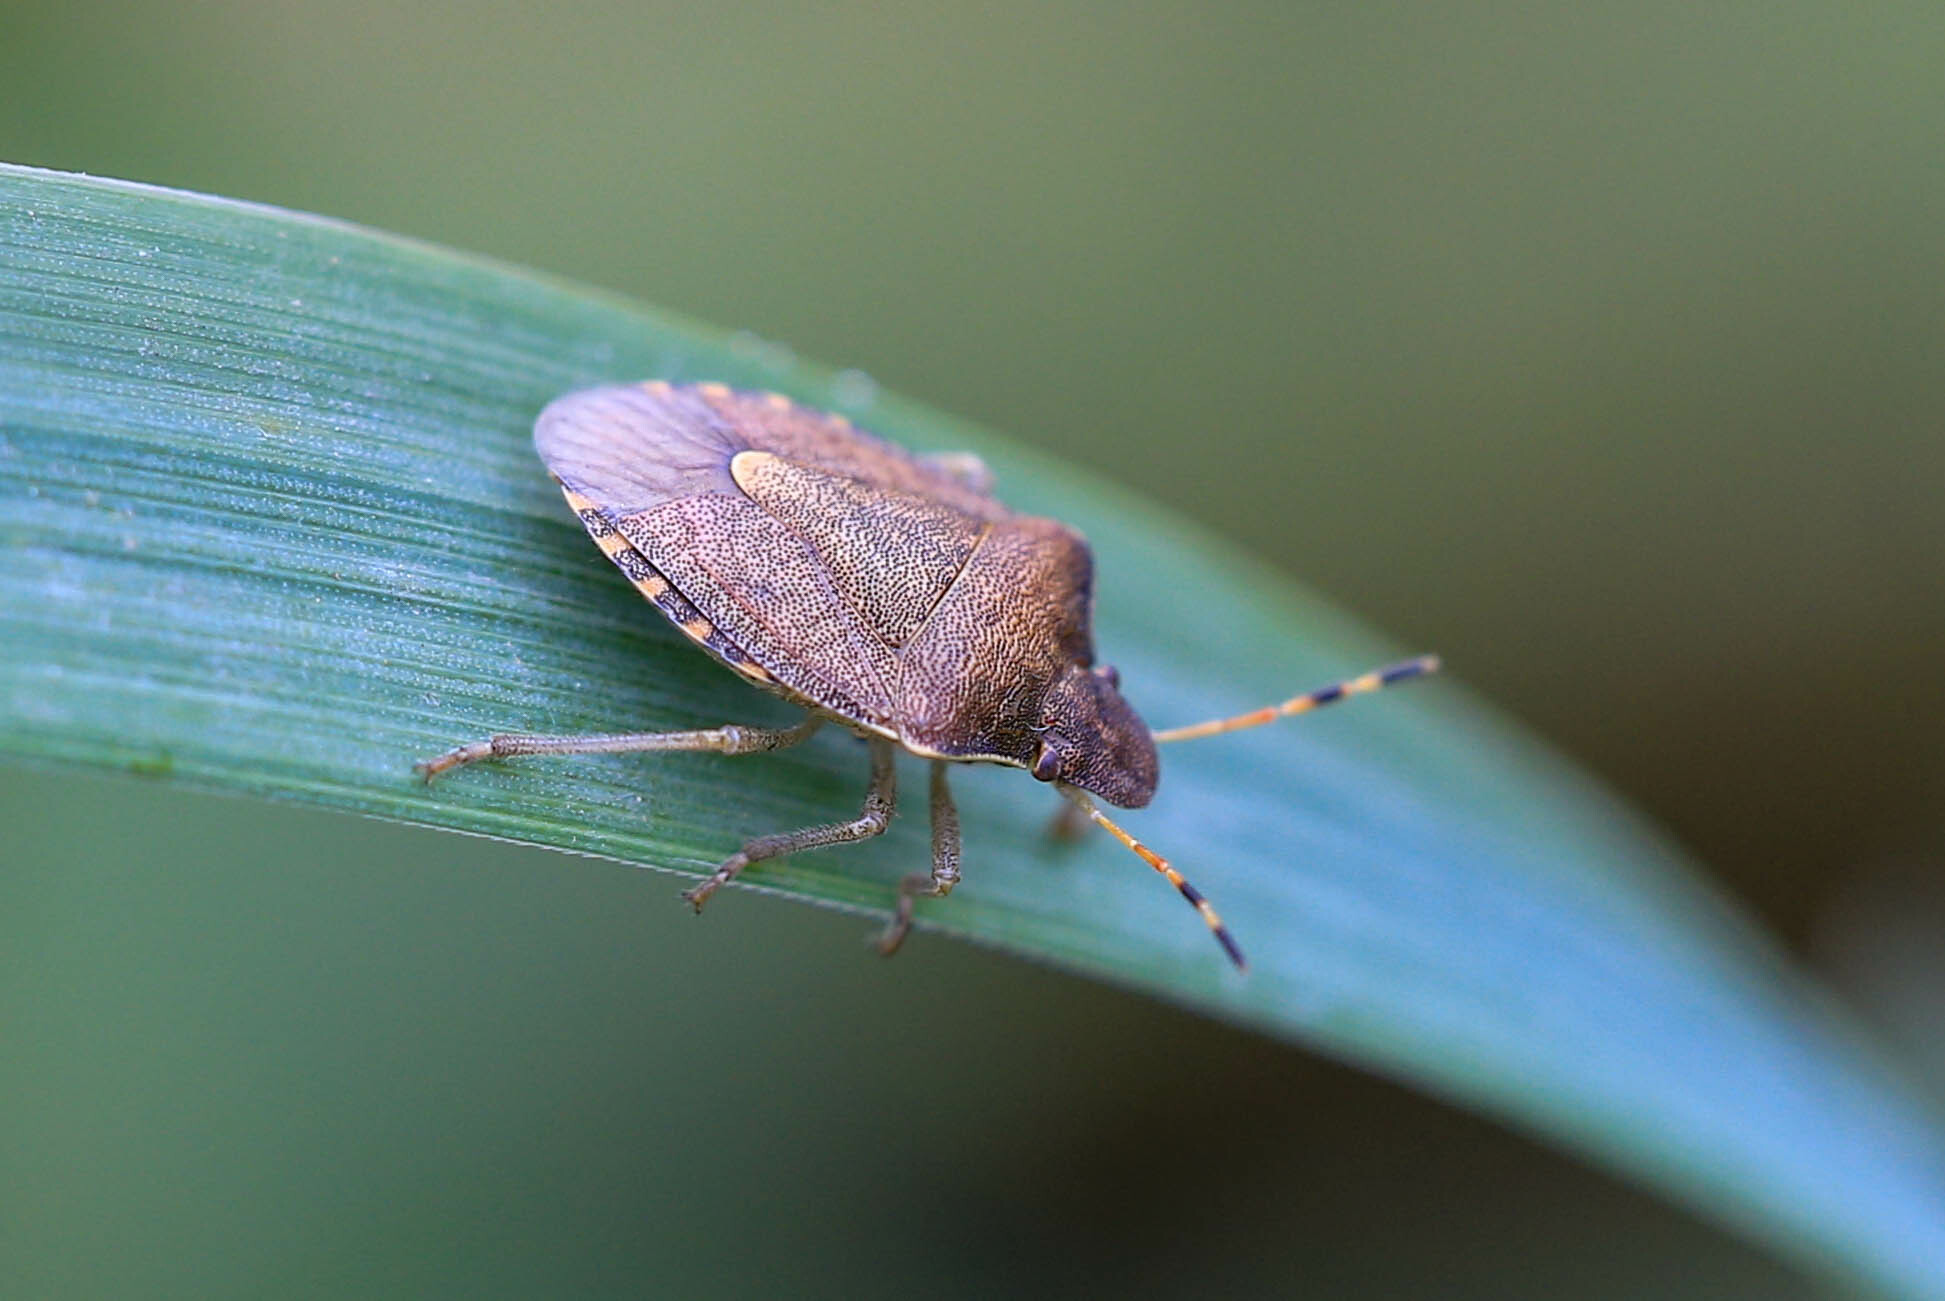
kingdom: Animalia
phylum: Arthropoda
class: Insecta
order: Hemiptera
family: Pentatomidae
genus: Holcostethus
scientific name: Holcostethus strictus
